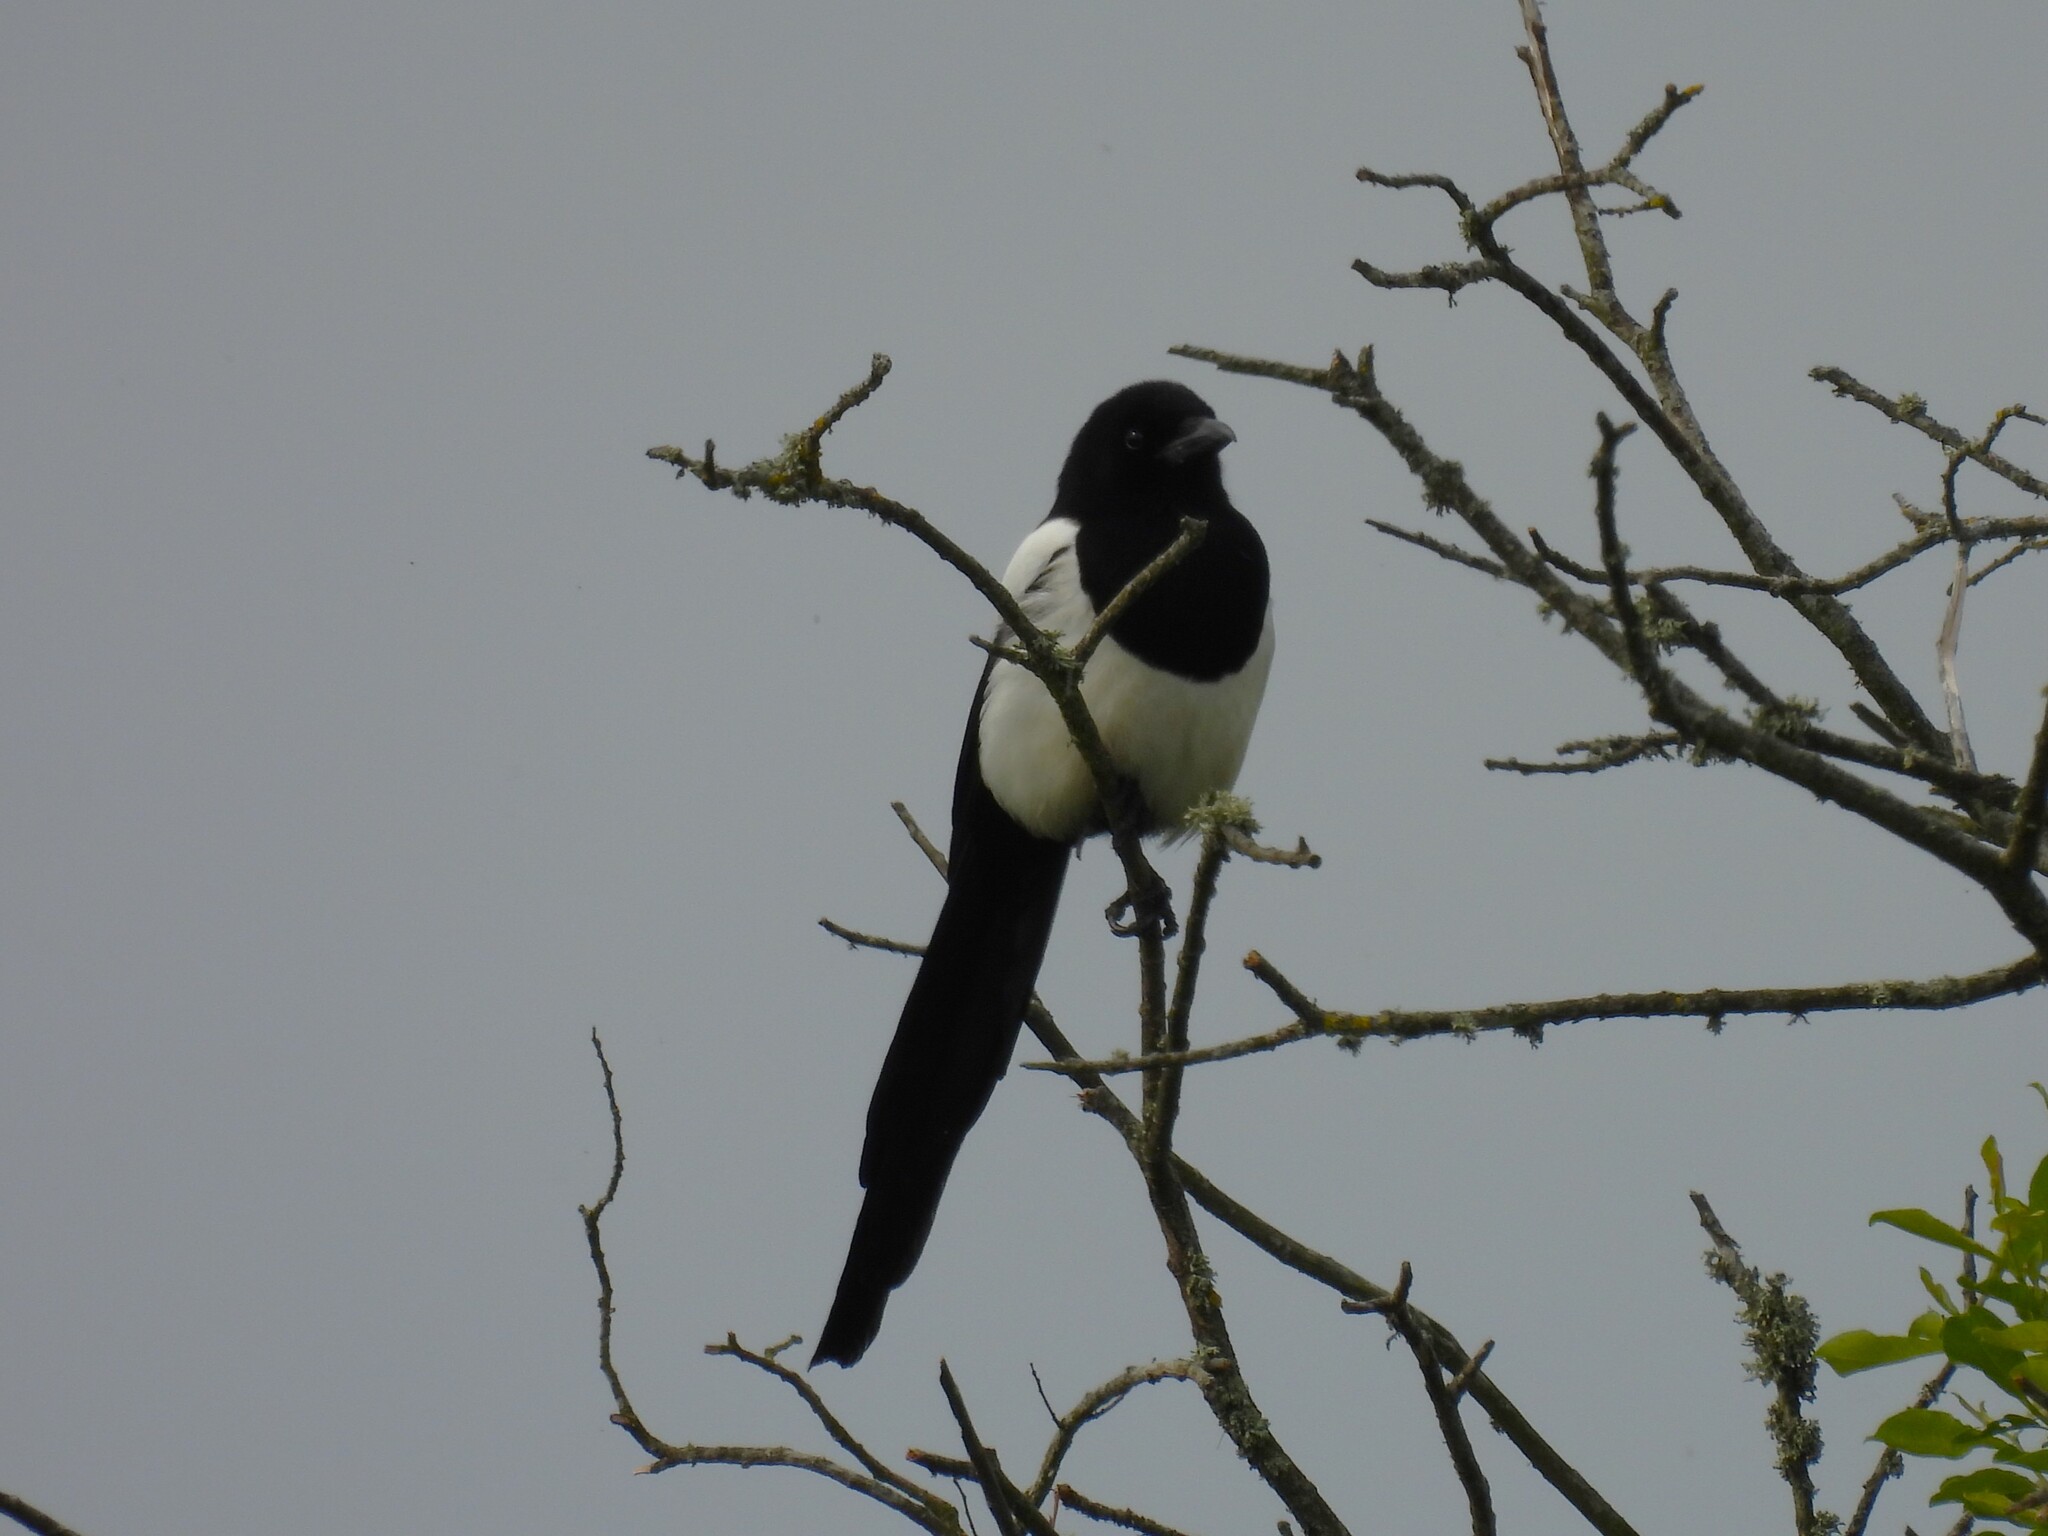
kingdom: Animalia
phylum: Chordata
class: Aves
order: Passeriformes
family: Corvidae
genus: Pica
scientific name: Pica pica
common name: Eurasian magpie
